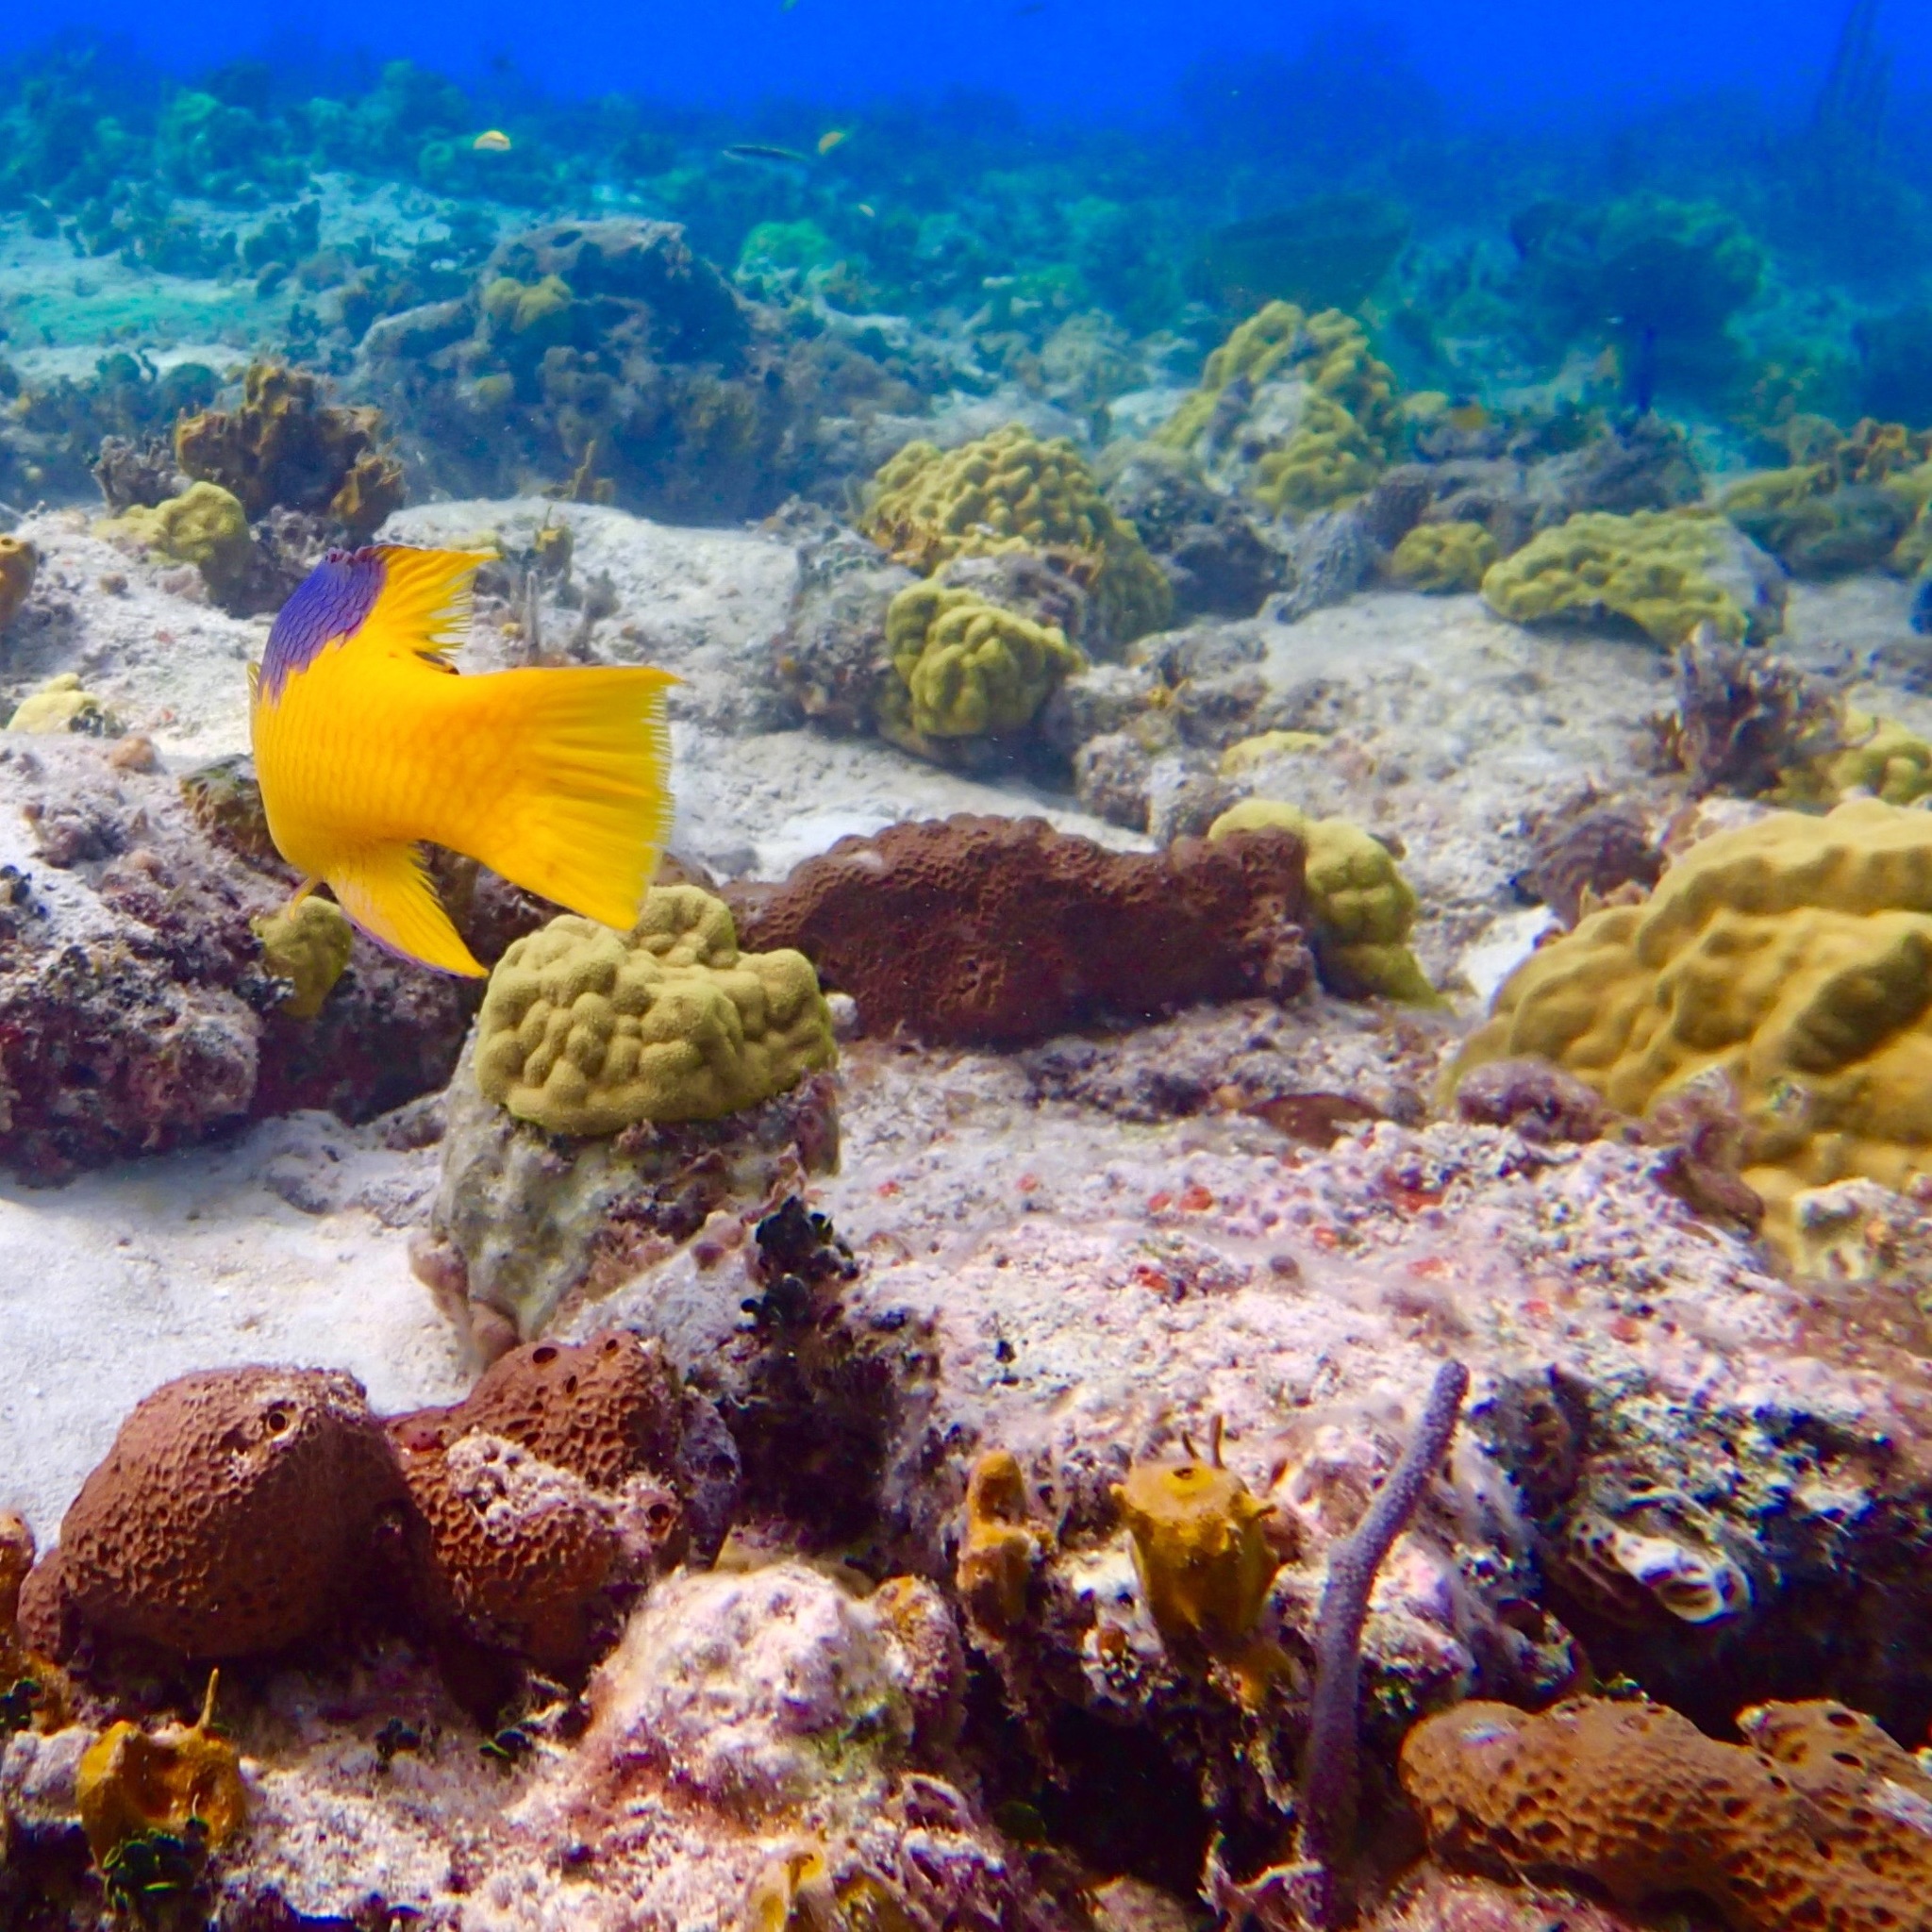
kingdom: Animalia
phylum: Chordata
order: Perciformes
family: Labridae
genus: Bodianus
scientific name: Bodianus rufus
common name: Spanish hogfish
